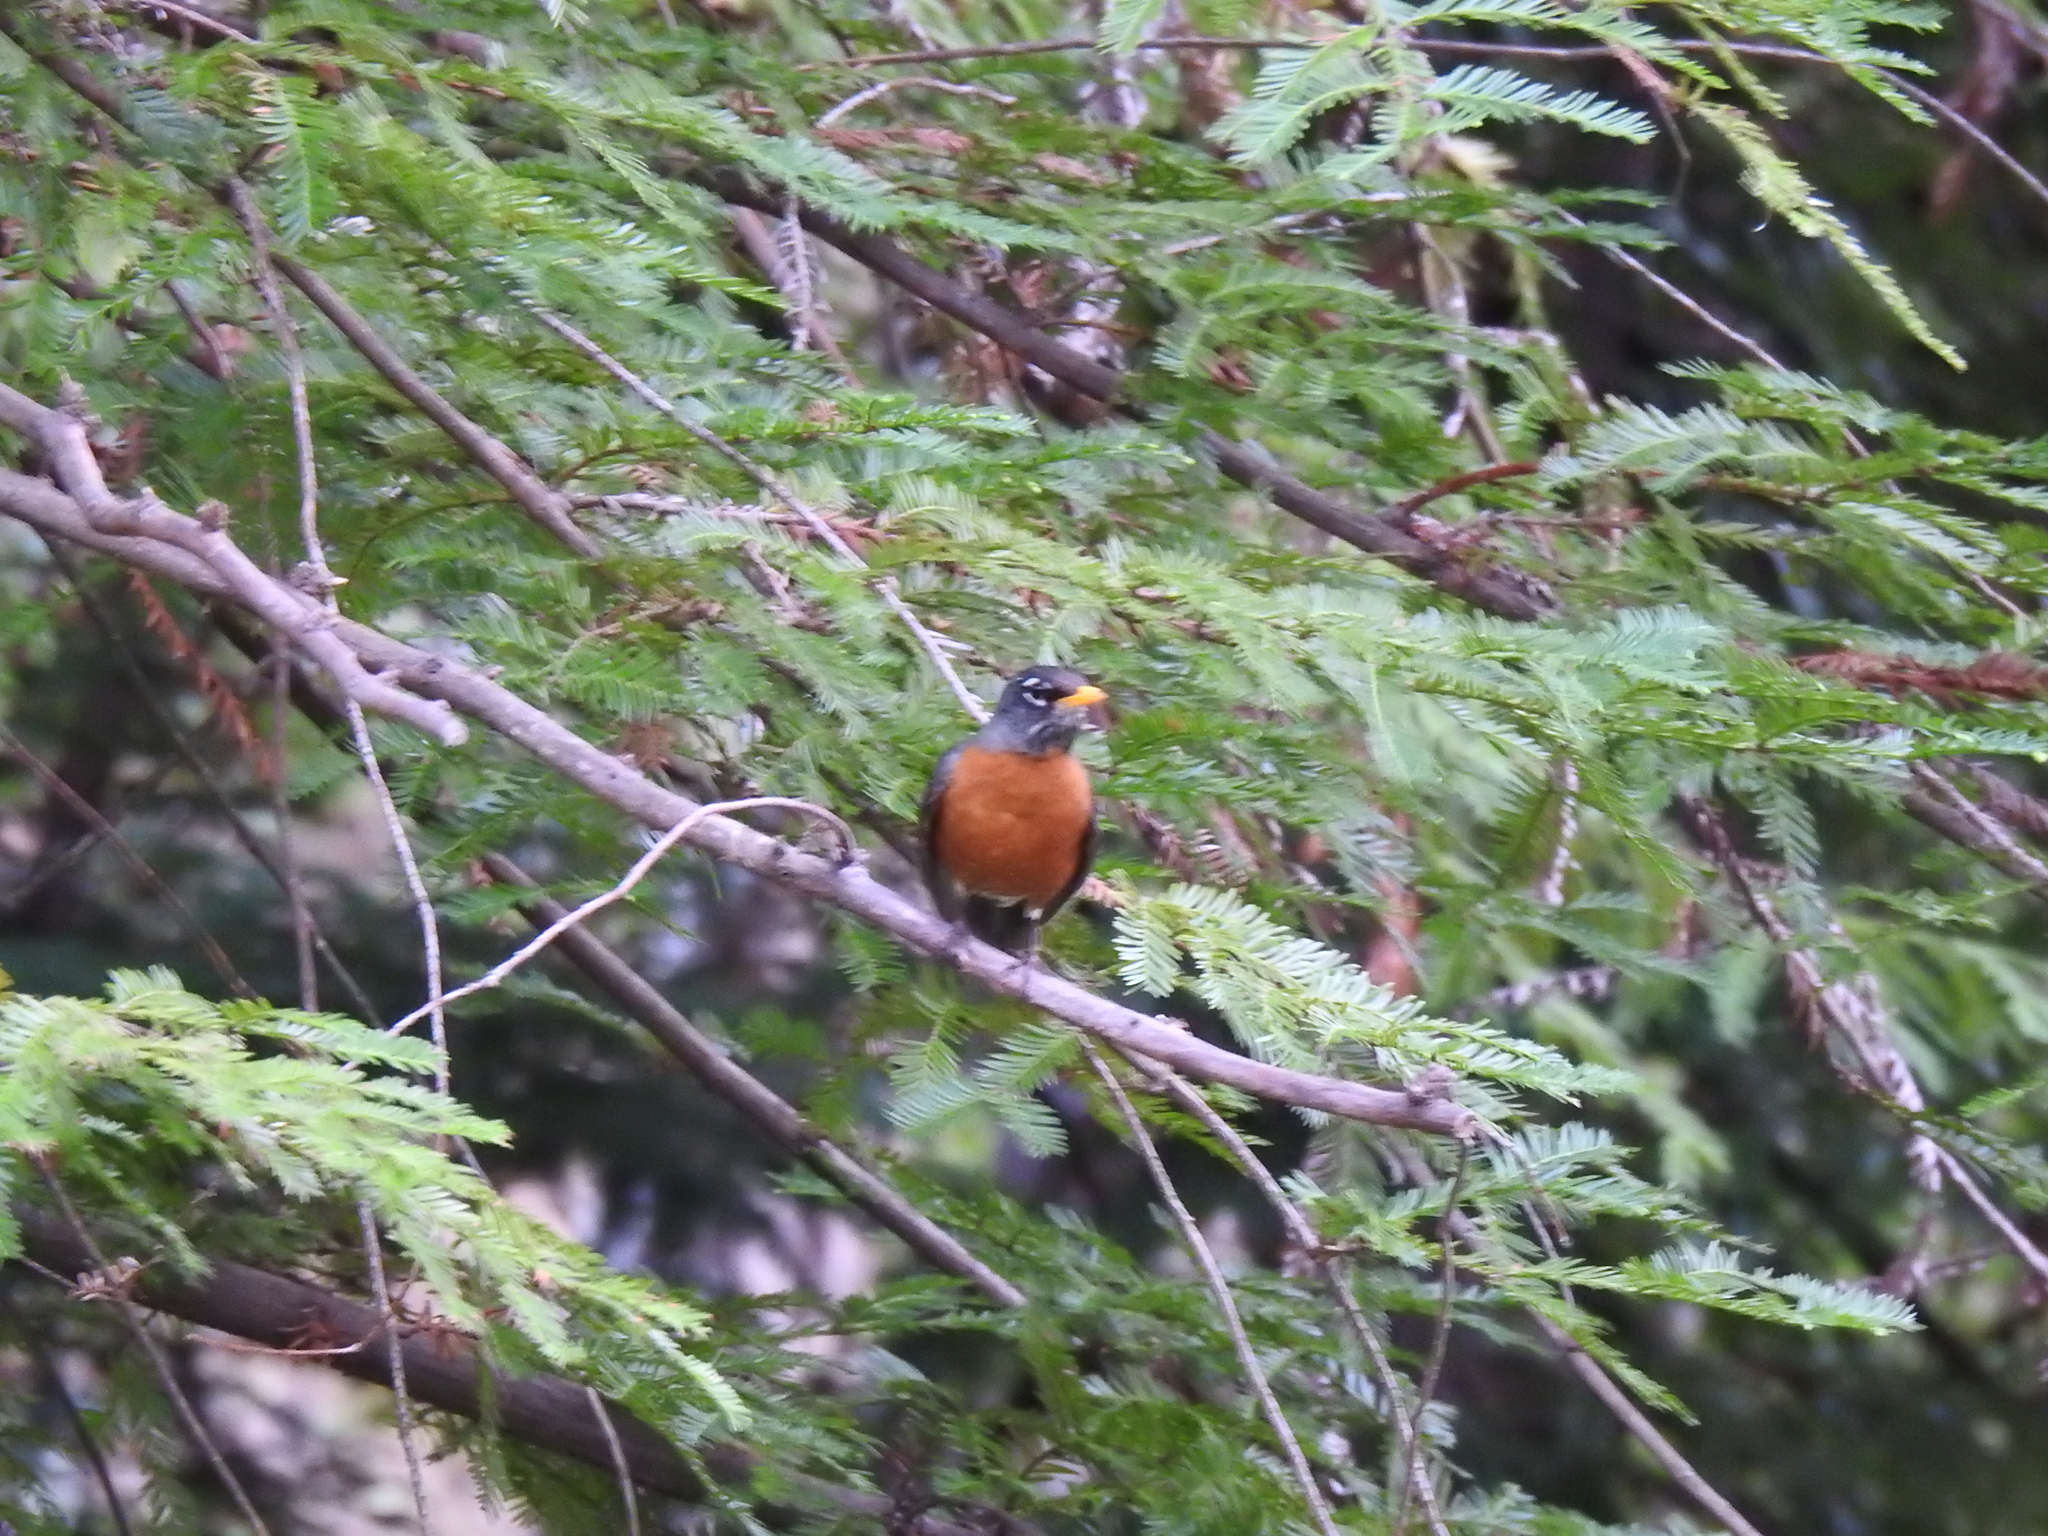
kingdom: Animalia
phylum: Chordata
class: Aves
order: Passeriformes
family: Turdidae
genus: Turdus
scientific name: Turdus migratorius
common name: American robin
